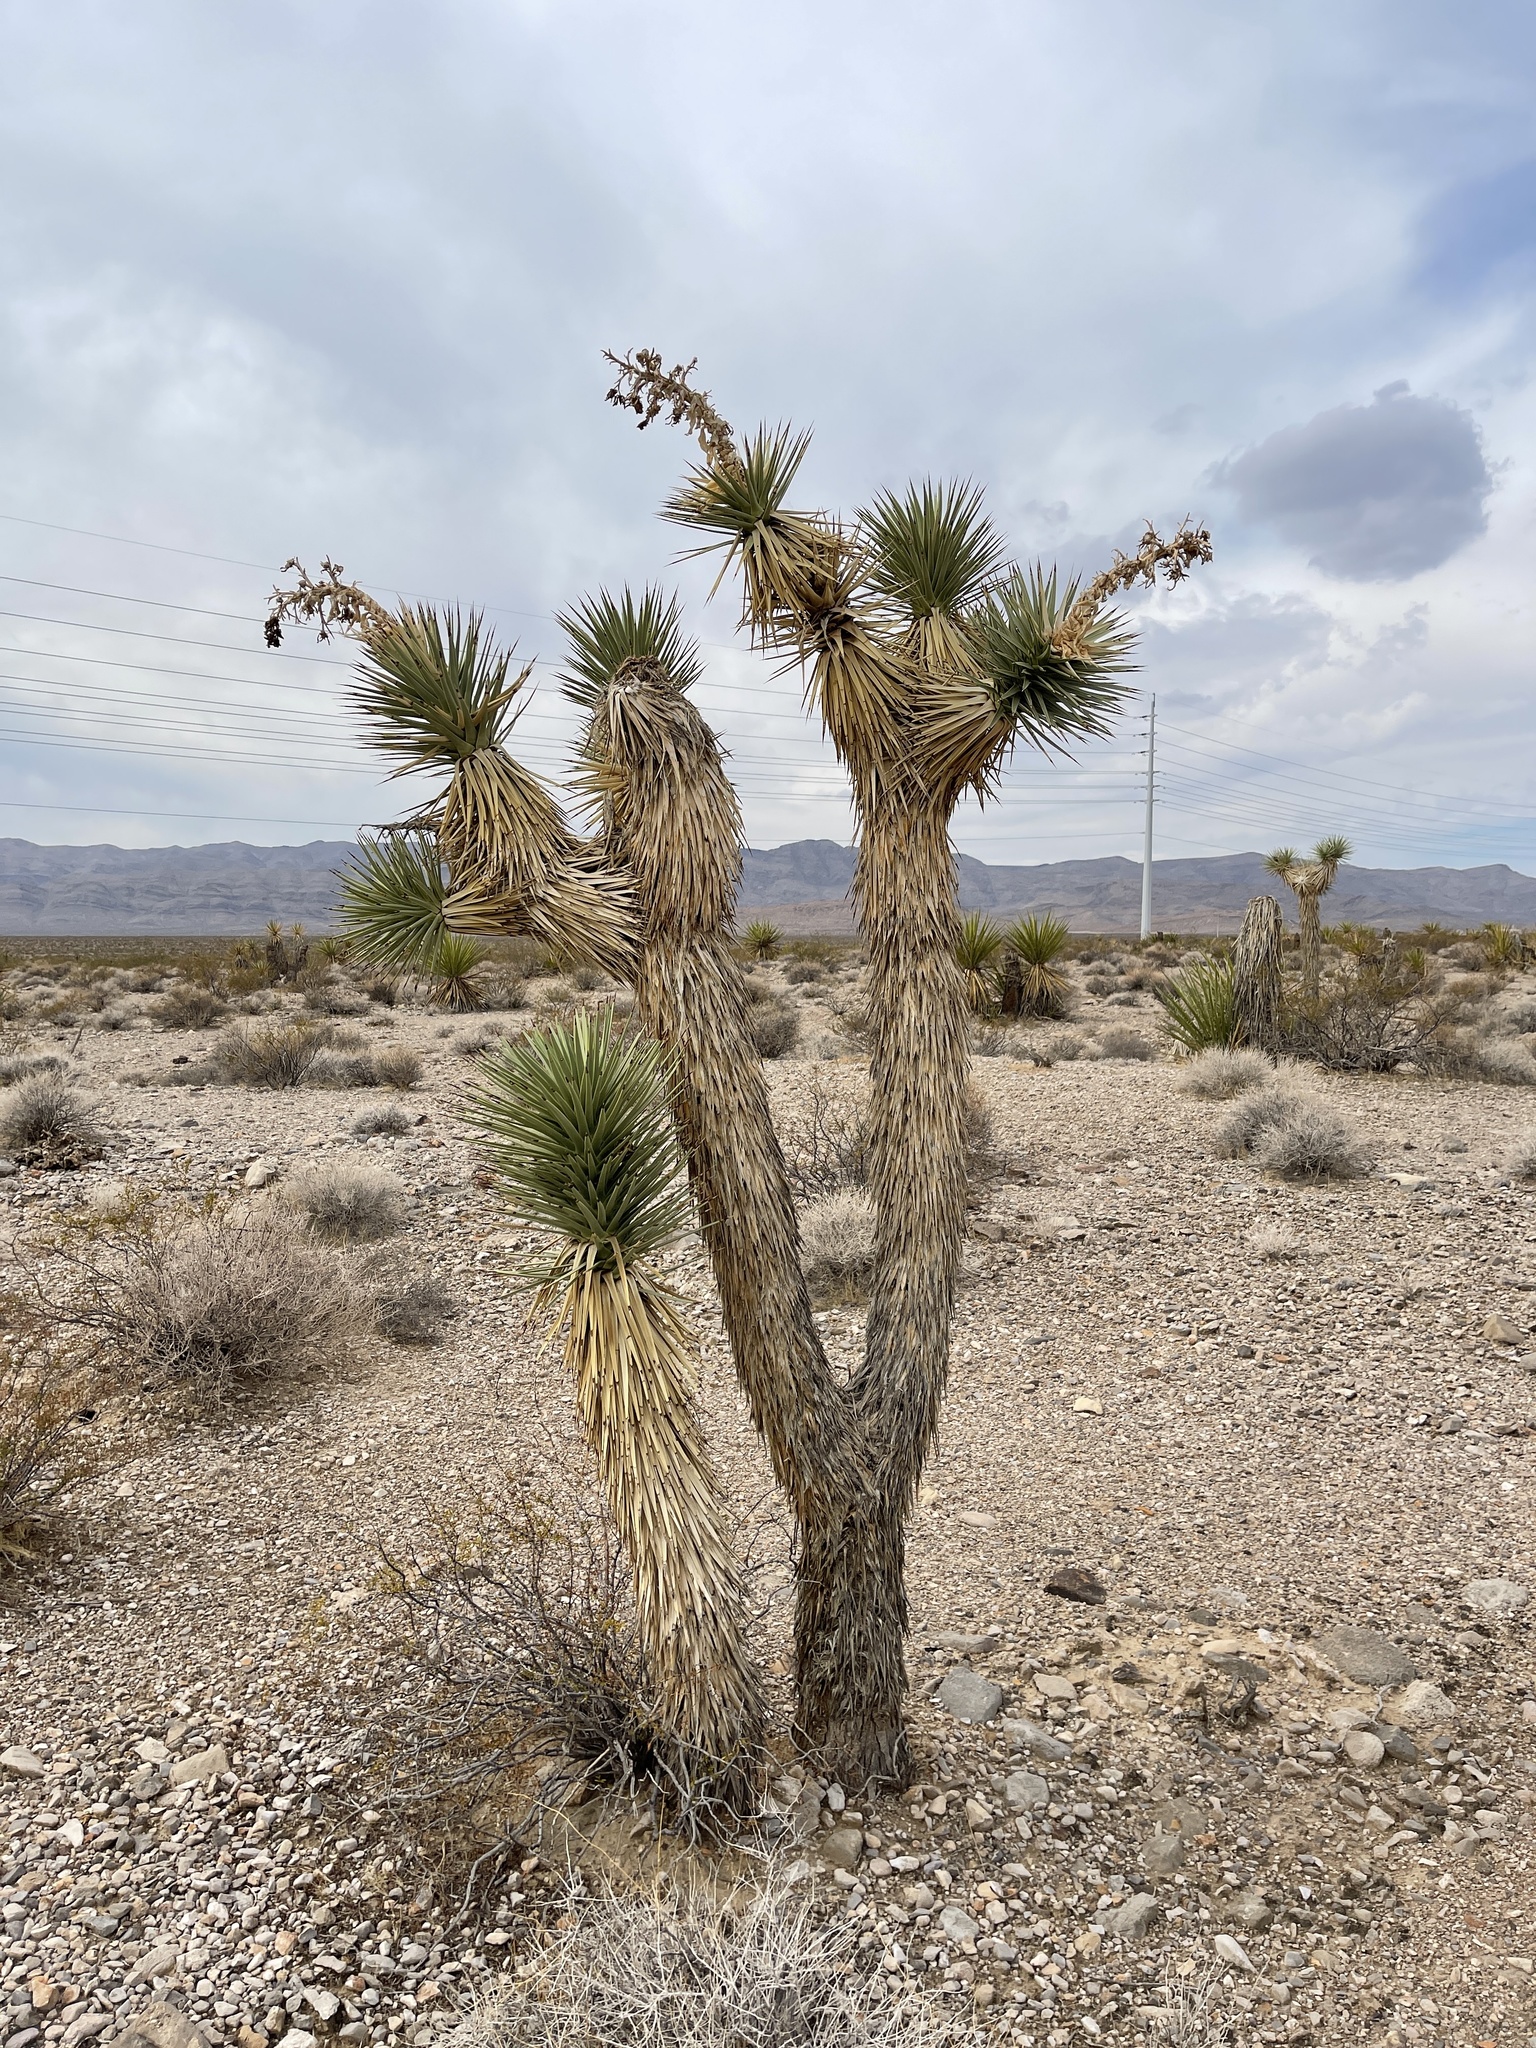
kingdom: Plantae
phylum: Tracheophyta
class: Liliopsida
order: Asparagales
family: Asparagaceae
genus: Yucca
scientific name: Yucca brevifolia
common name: Joshua tree
